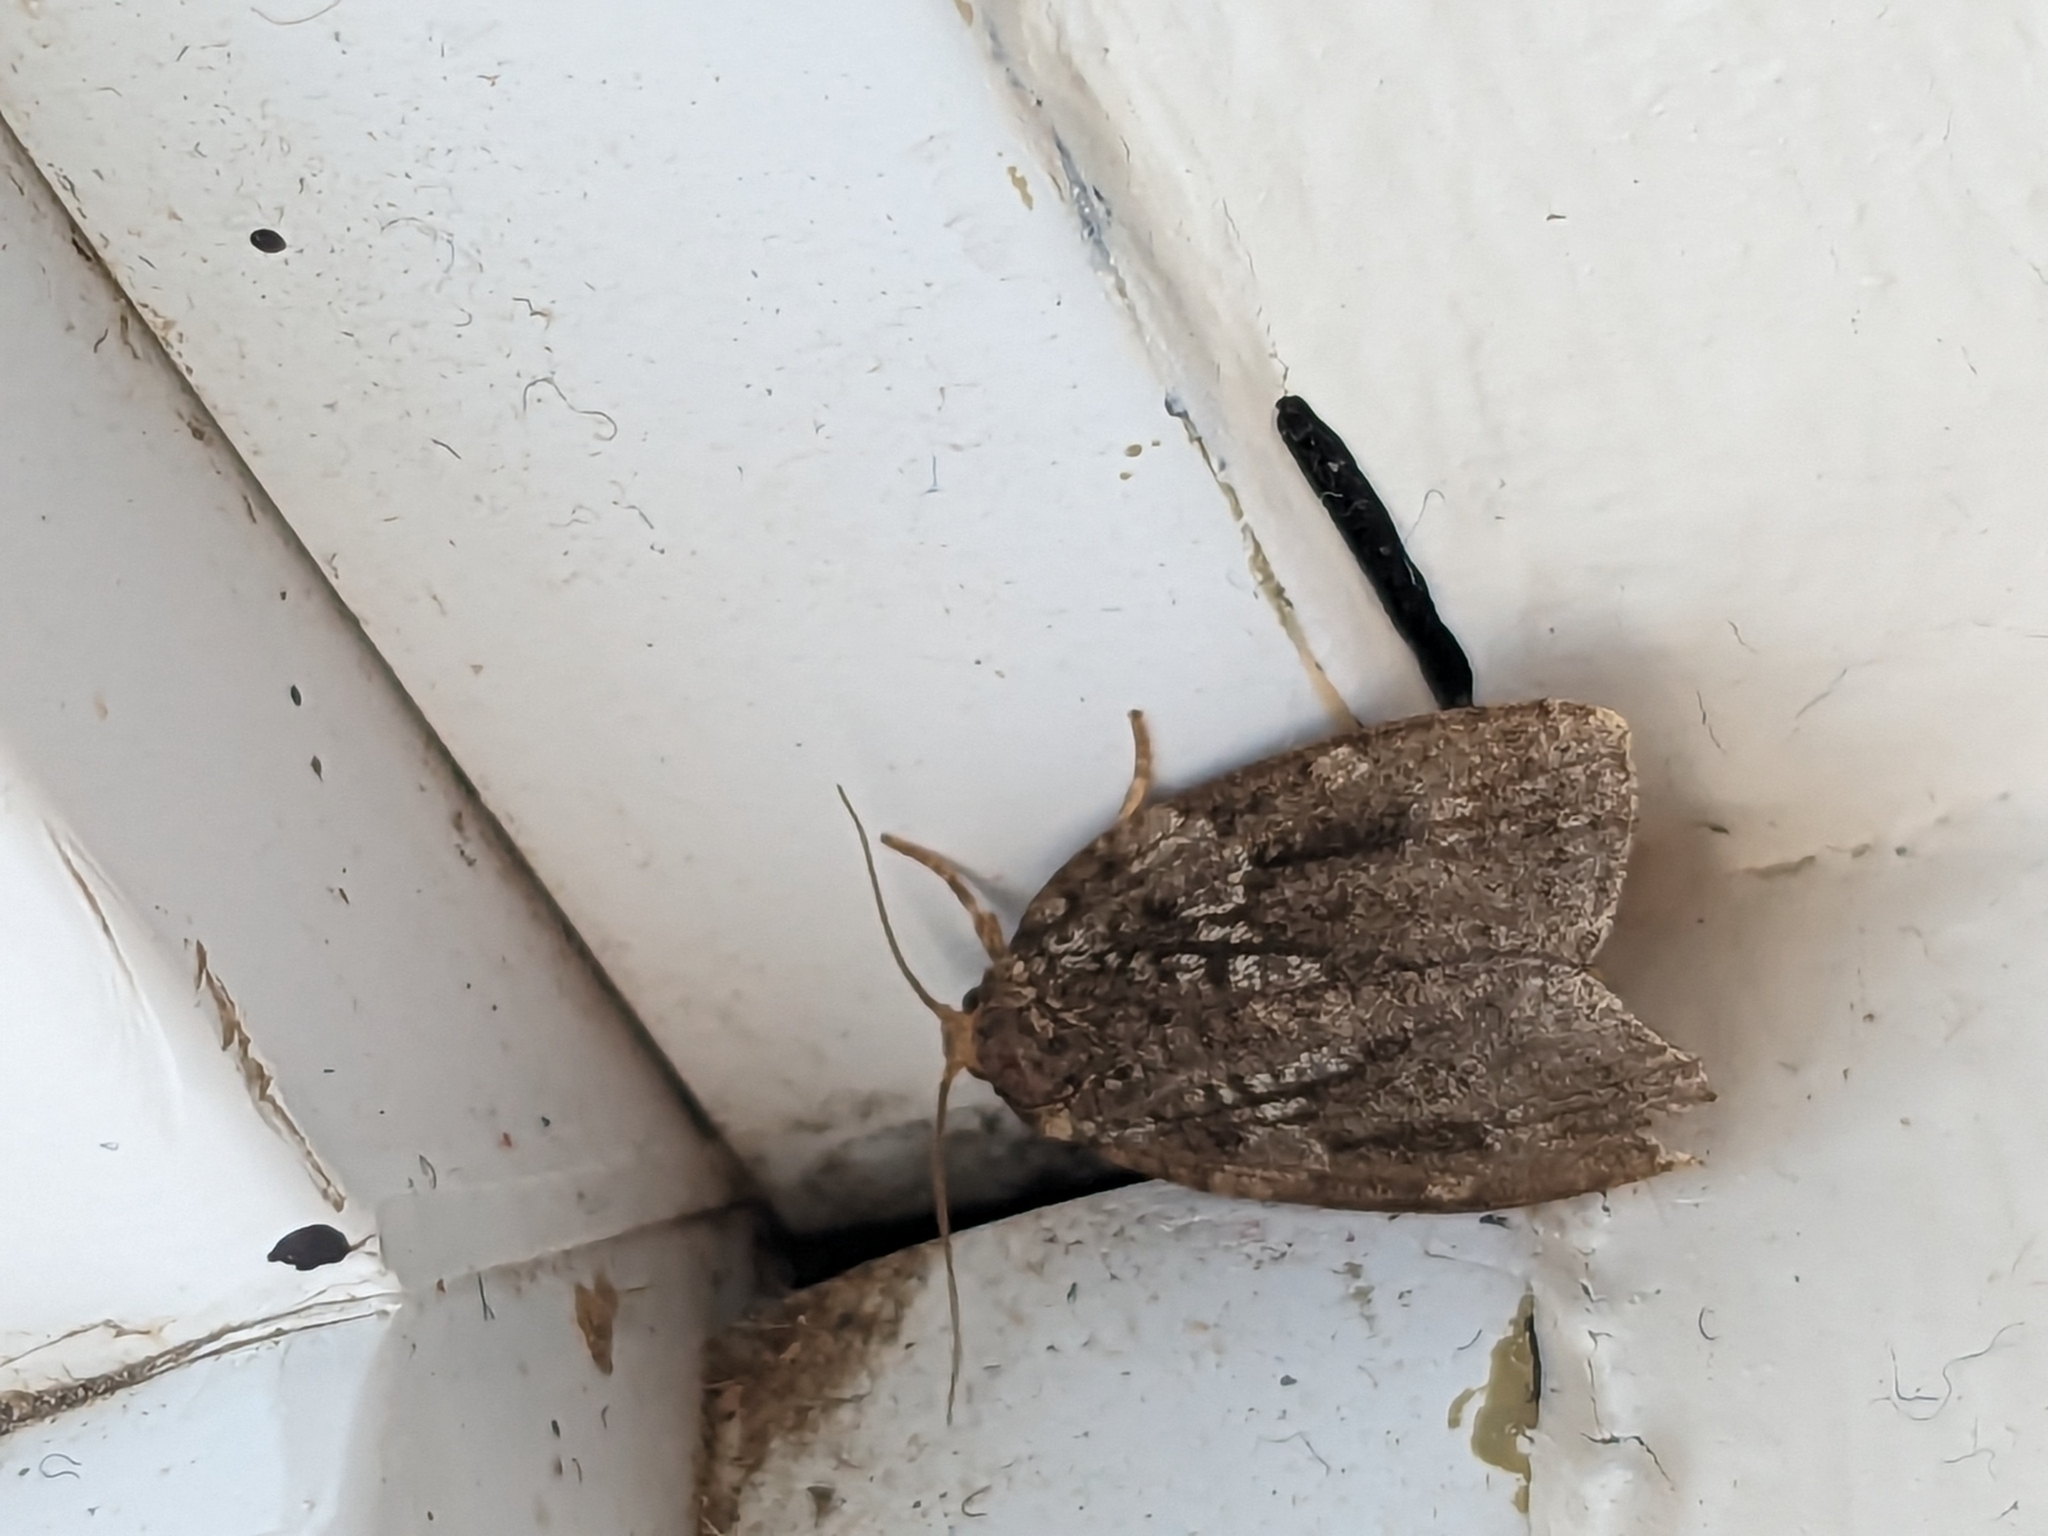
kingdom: Animalia
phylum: Arthropoda
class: Insecta
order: Lepidoptera
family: Tortricidae
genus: Choristoneura
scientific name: Choristoneura fumiferana
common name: Spruce budworm
